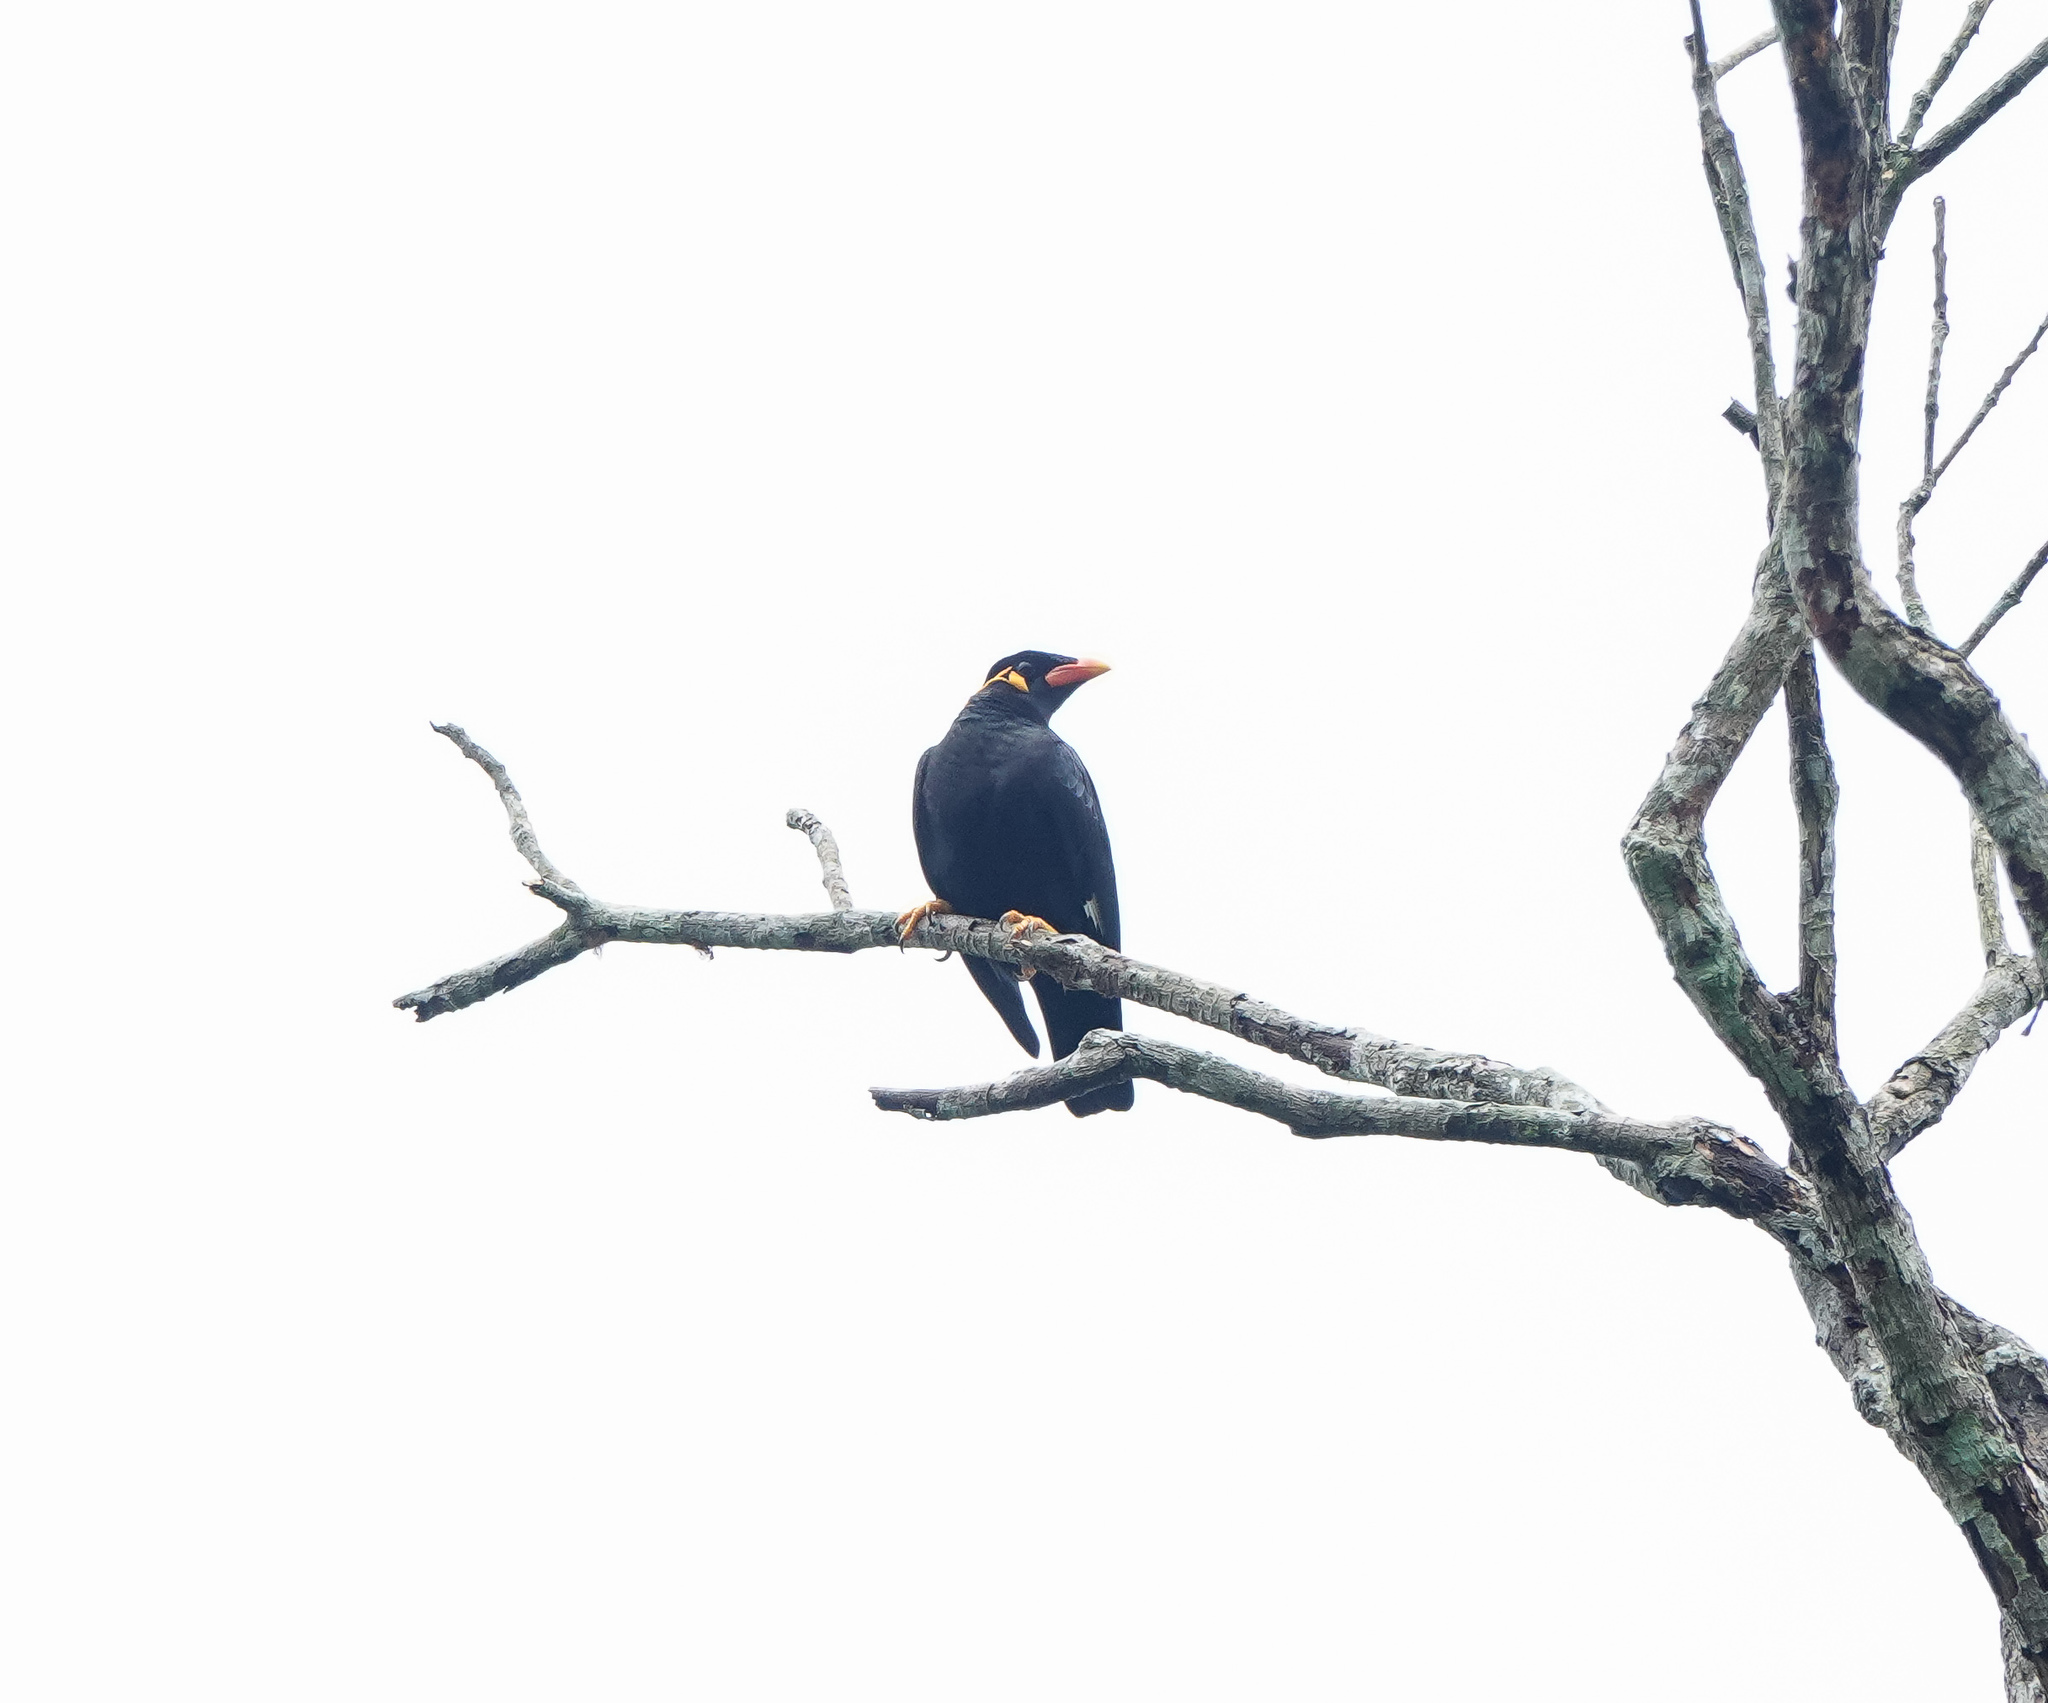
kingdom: Animalia
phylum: Chordata
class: Aves
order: Passeriformes
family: Sturnidae
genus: Gracula
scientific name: Gracula religiosa
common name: Common hill myna
